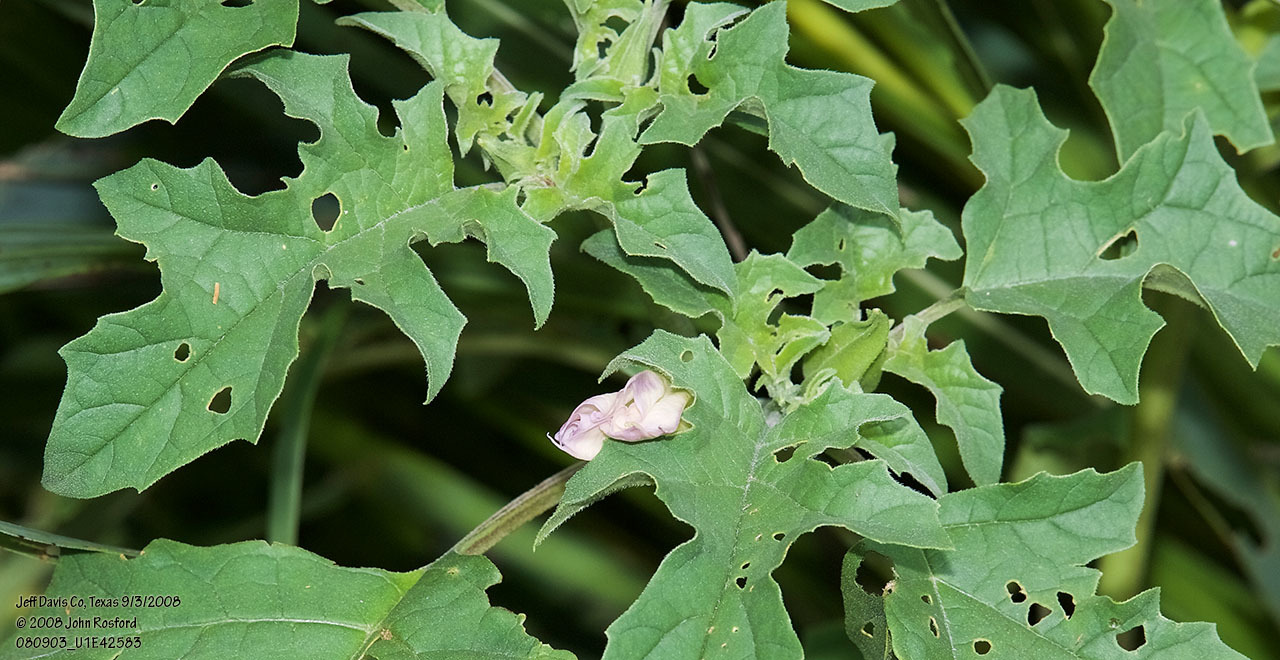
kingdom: Plantae
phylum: Tracheophyta
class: Magnoliopsida
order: Solanales
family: Solanaceae
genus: Datura
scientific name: Datura quercifolia
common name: Oak-leaf datura
